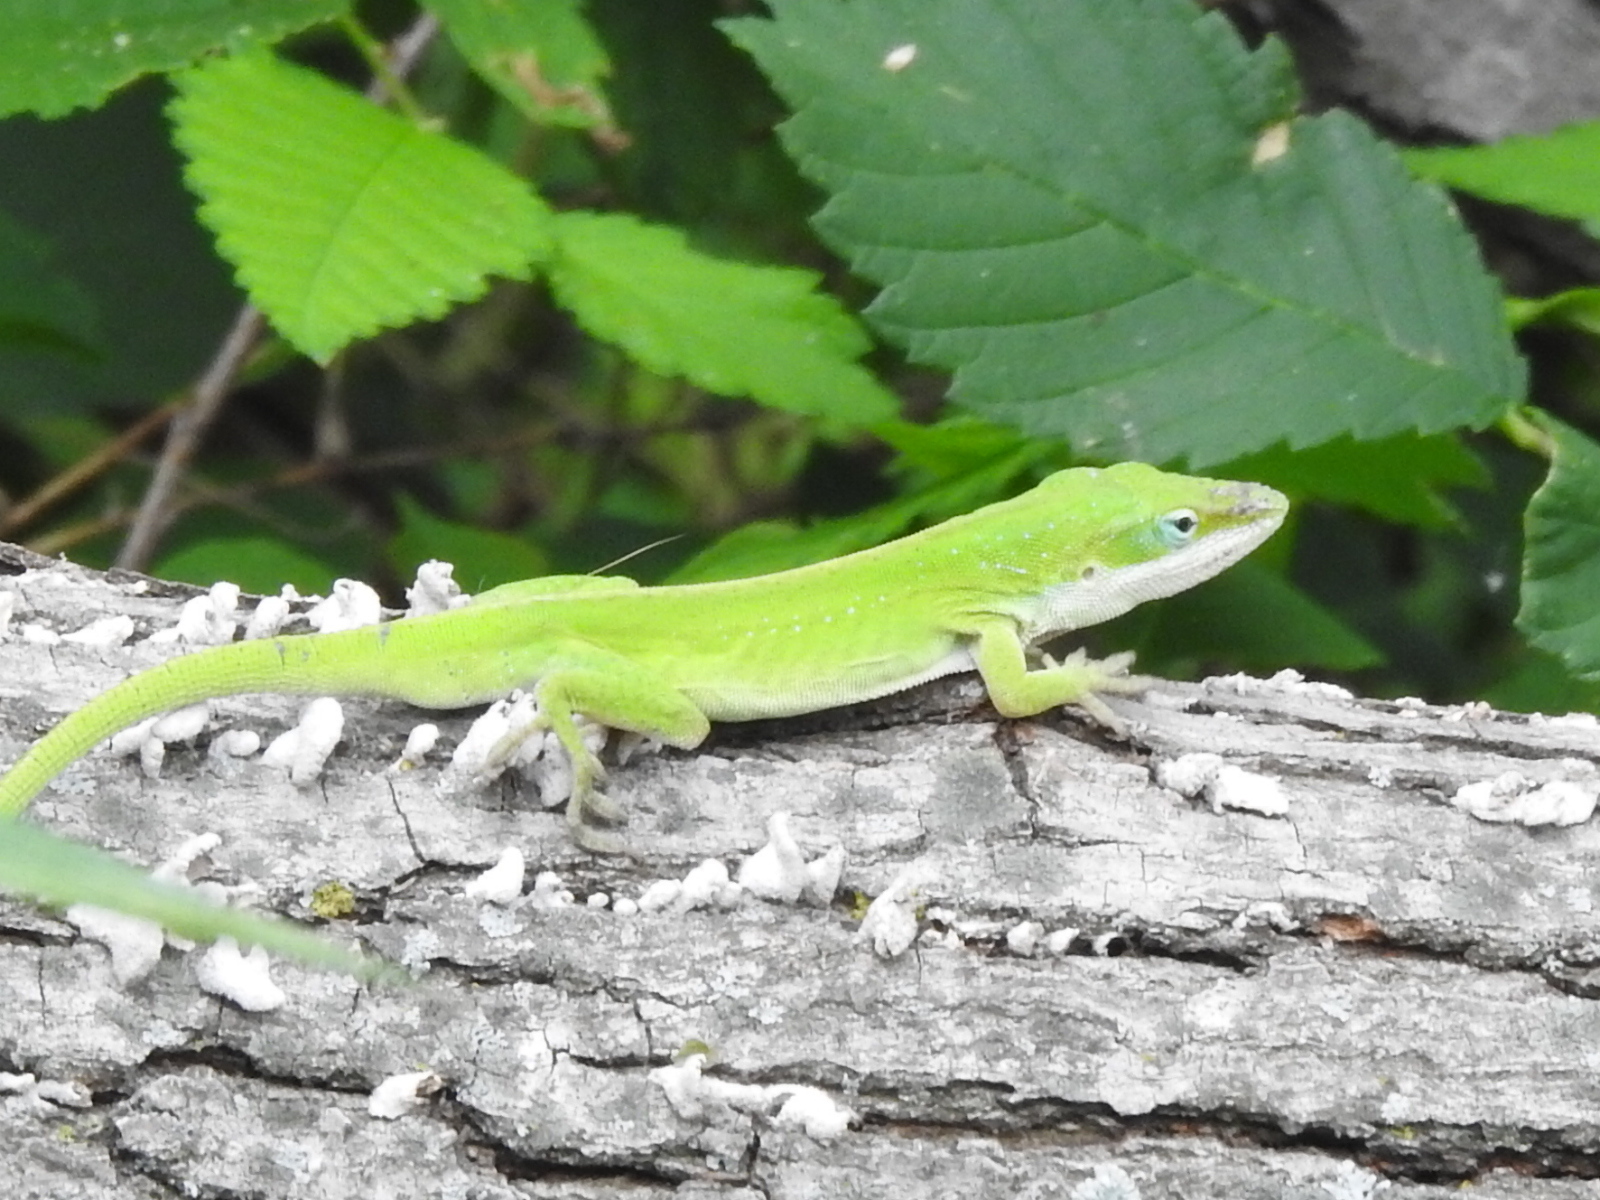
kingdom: Animalia
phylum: Chordata
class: Squamata
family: Dactyloidae
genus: Anolis
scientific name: Anolis carolinensis
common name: Green anole
